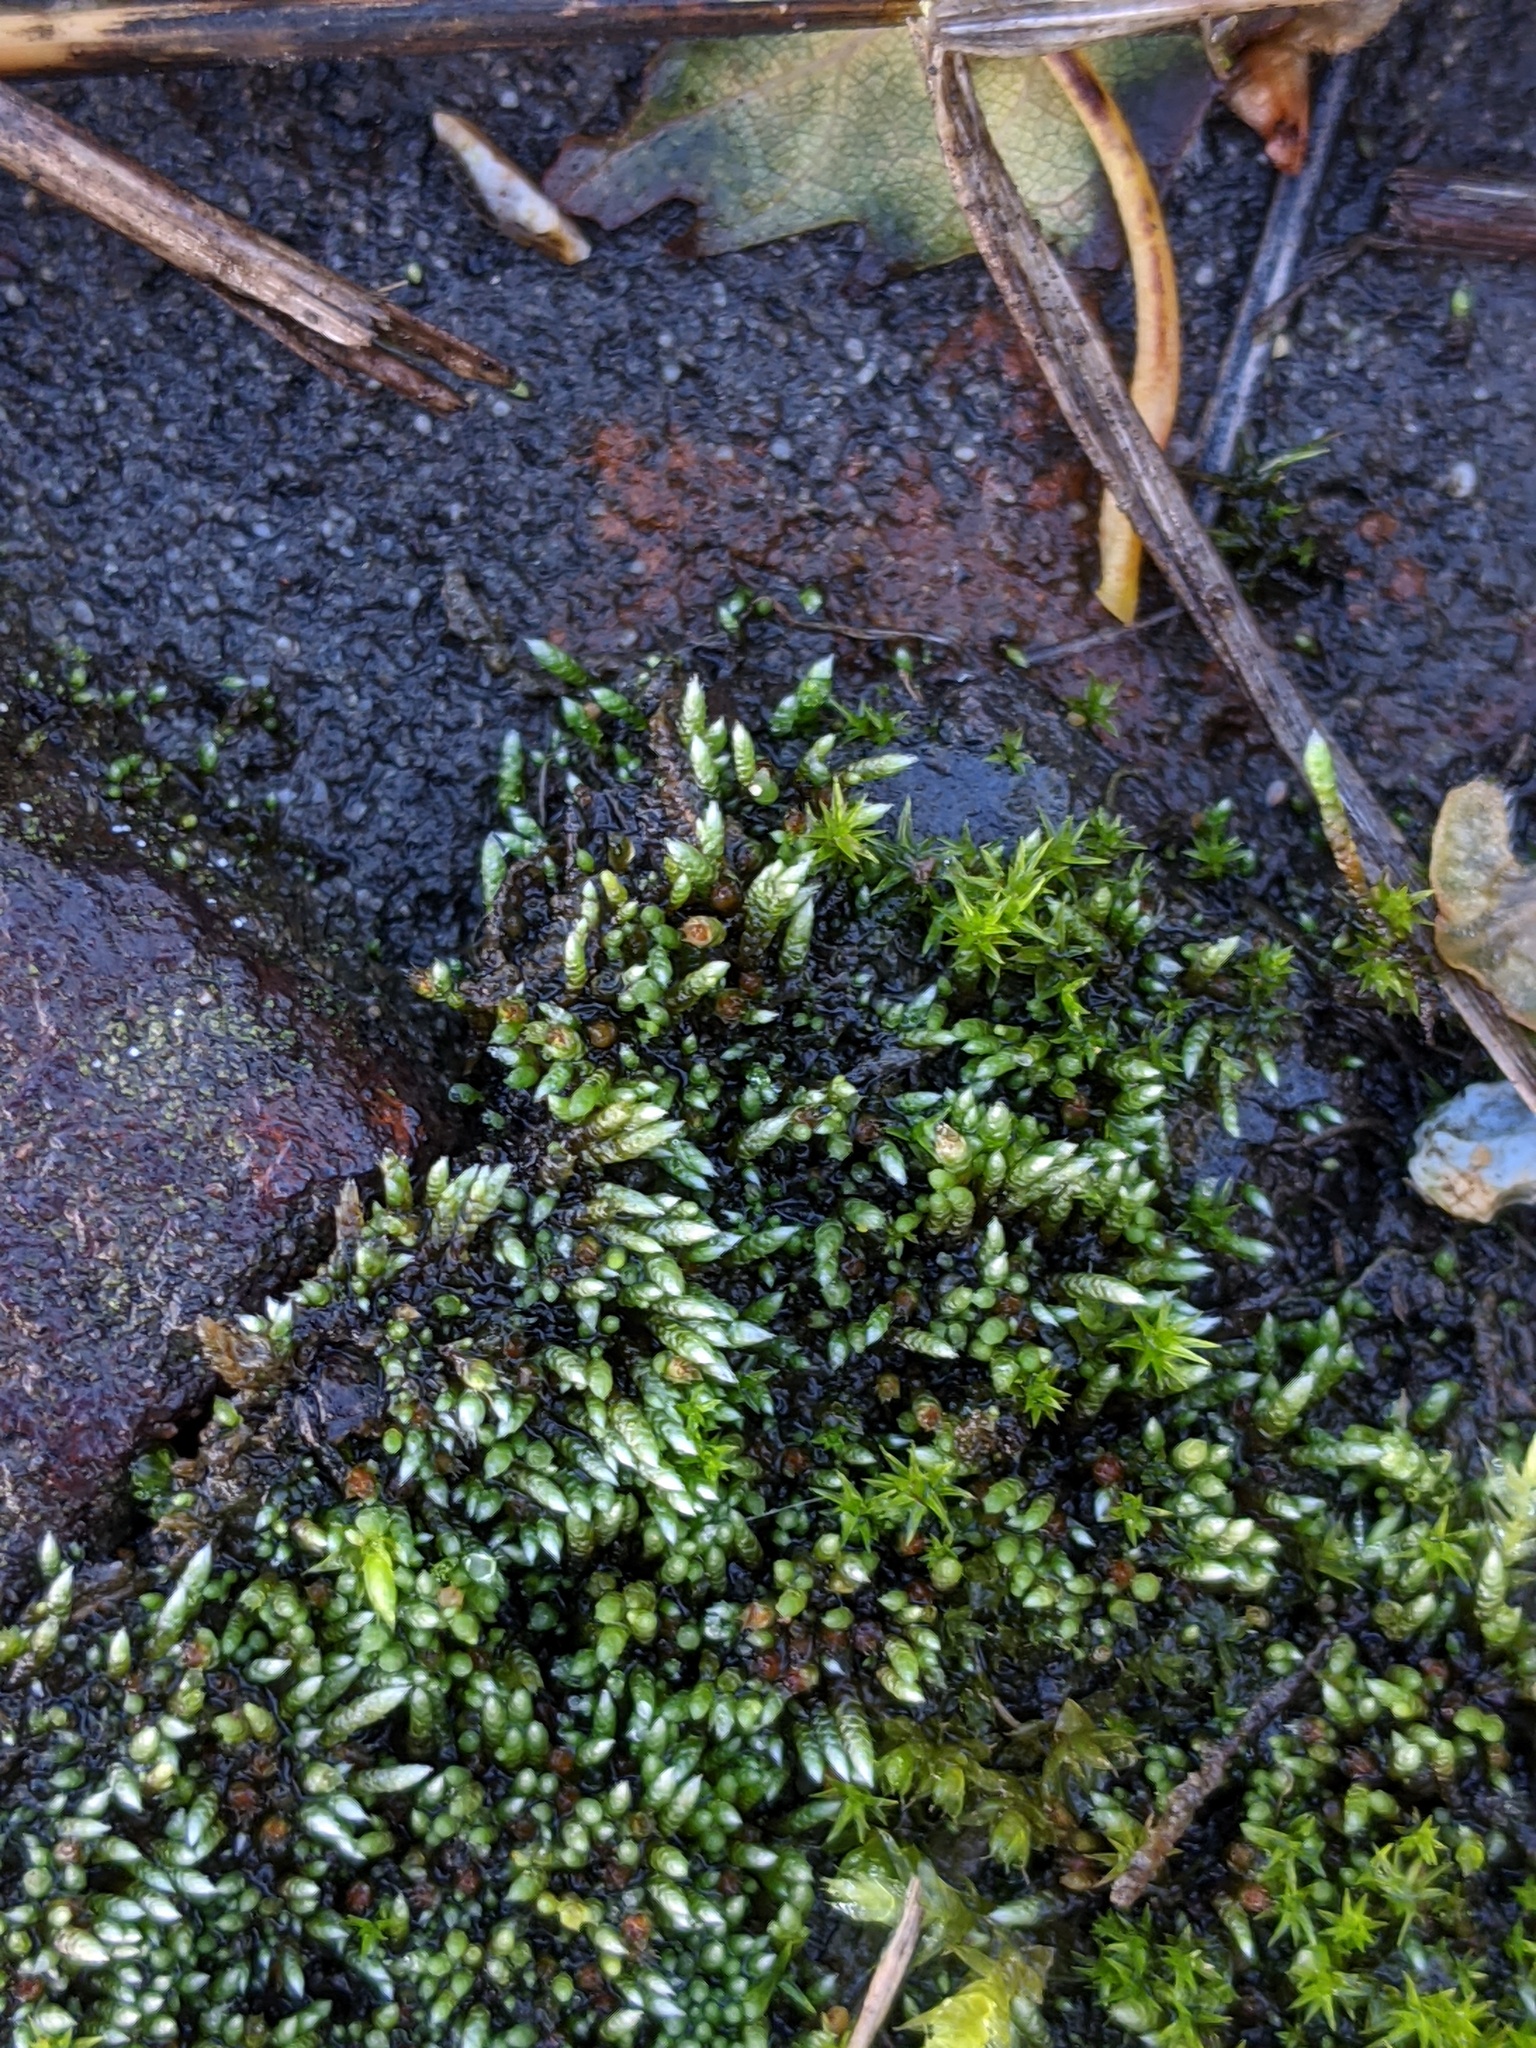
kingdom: Plantae
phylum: Bryophyta
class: Bryopsida
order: Bryales
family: Bryaceae
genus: Bryum
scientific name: Bryum argenteum
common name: Silver-moss
